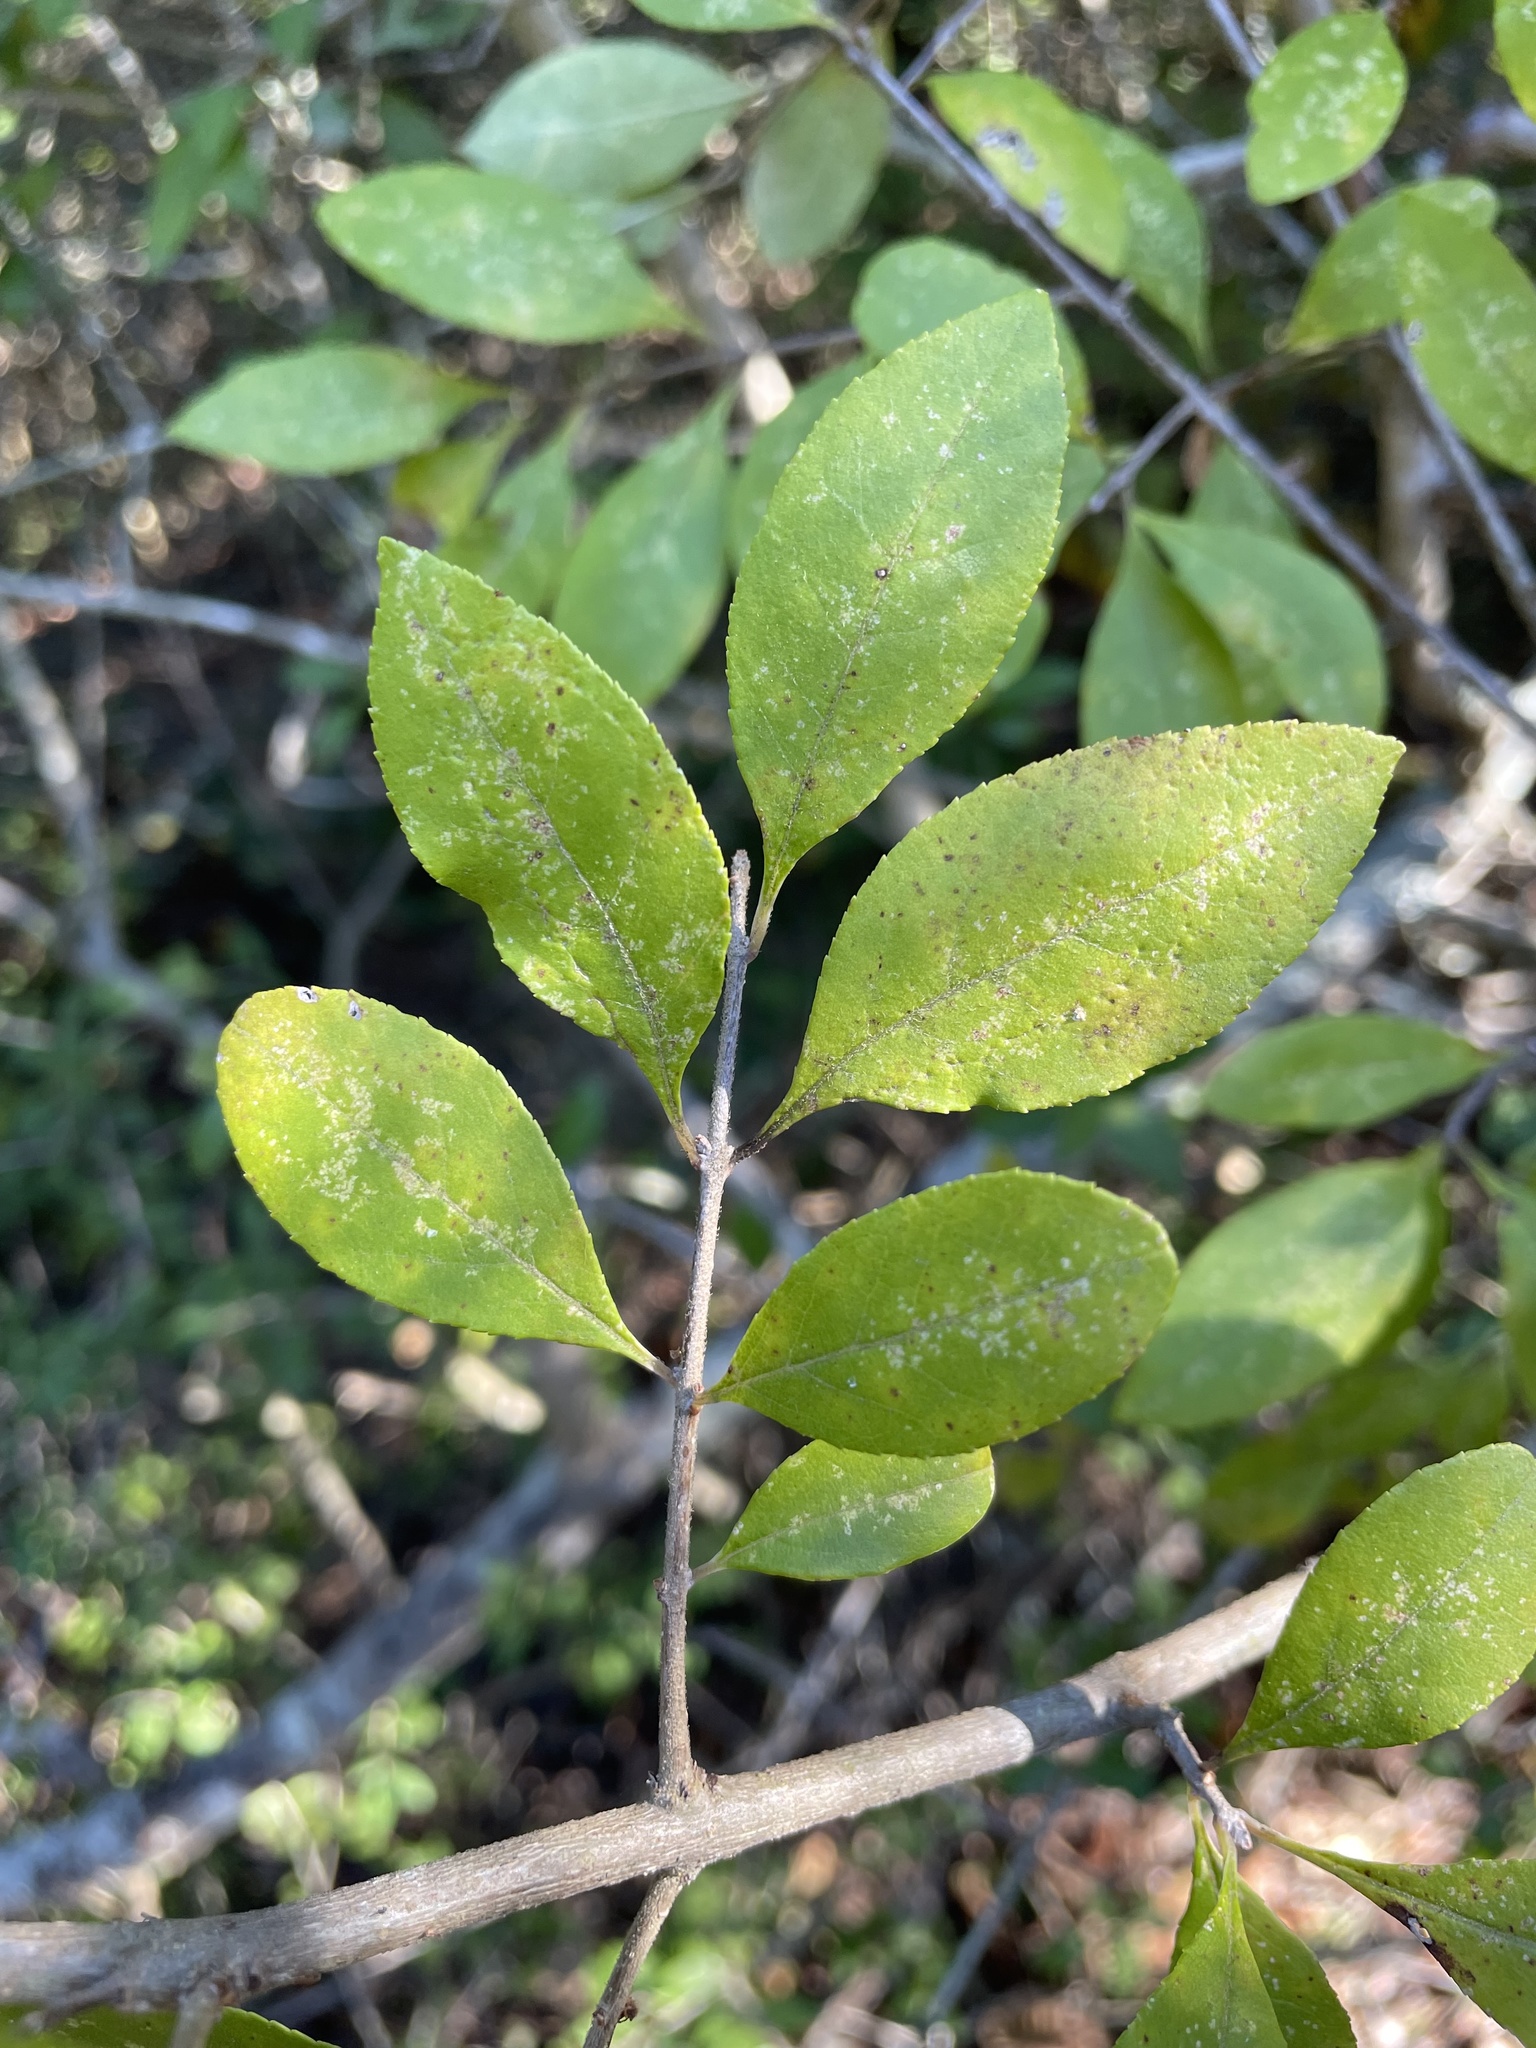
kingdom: Plantae
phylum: Tracheophyta
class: Magnoliopsida
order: Lamiales
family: Oleaceae
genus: Forestiera
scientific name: Forestiera ligustrina
